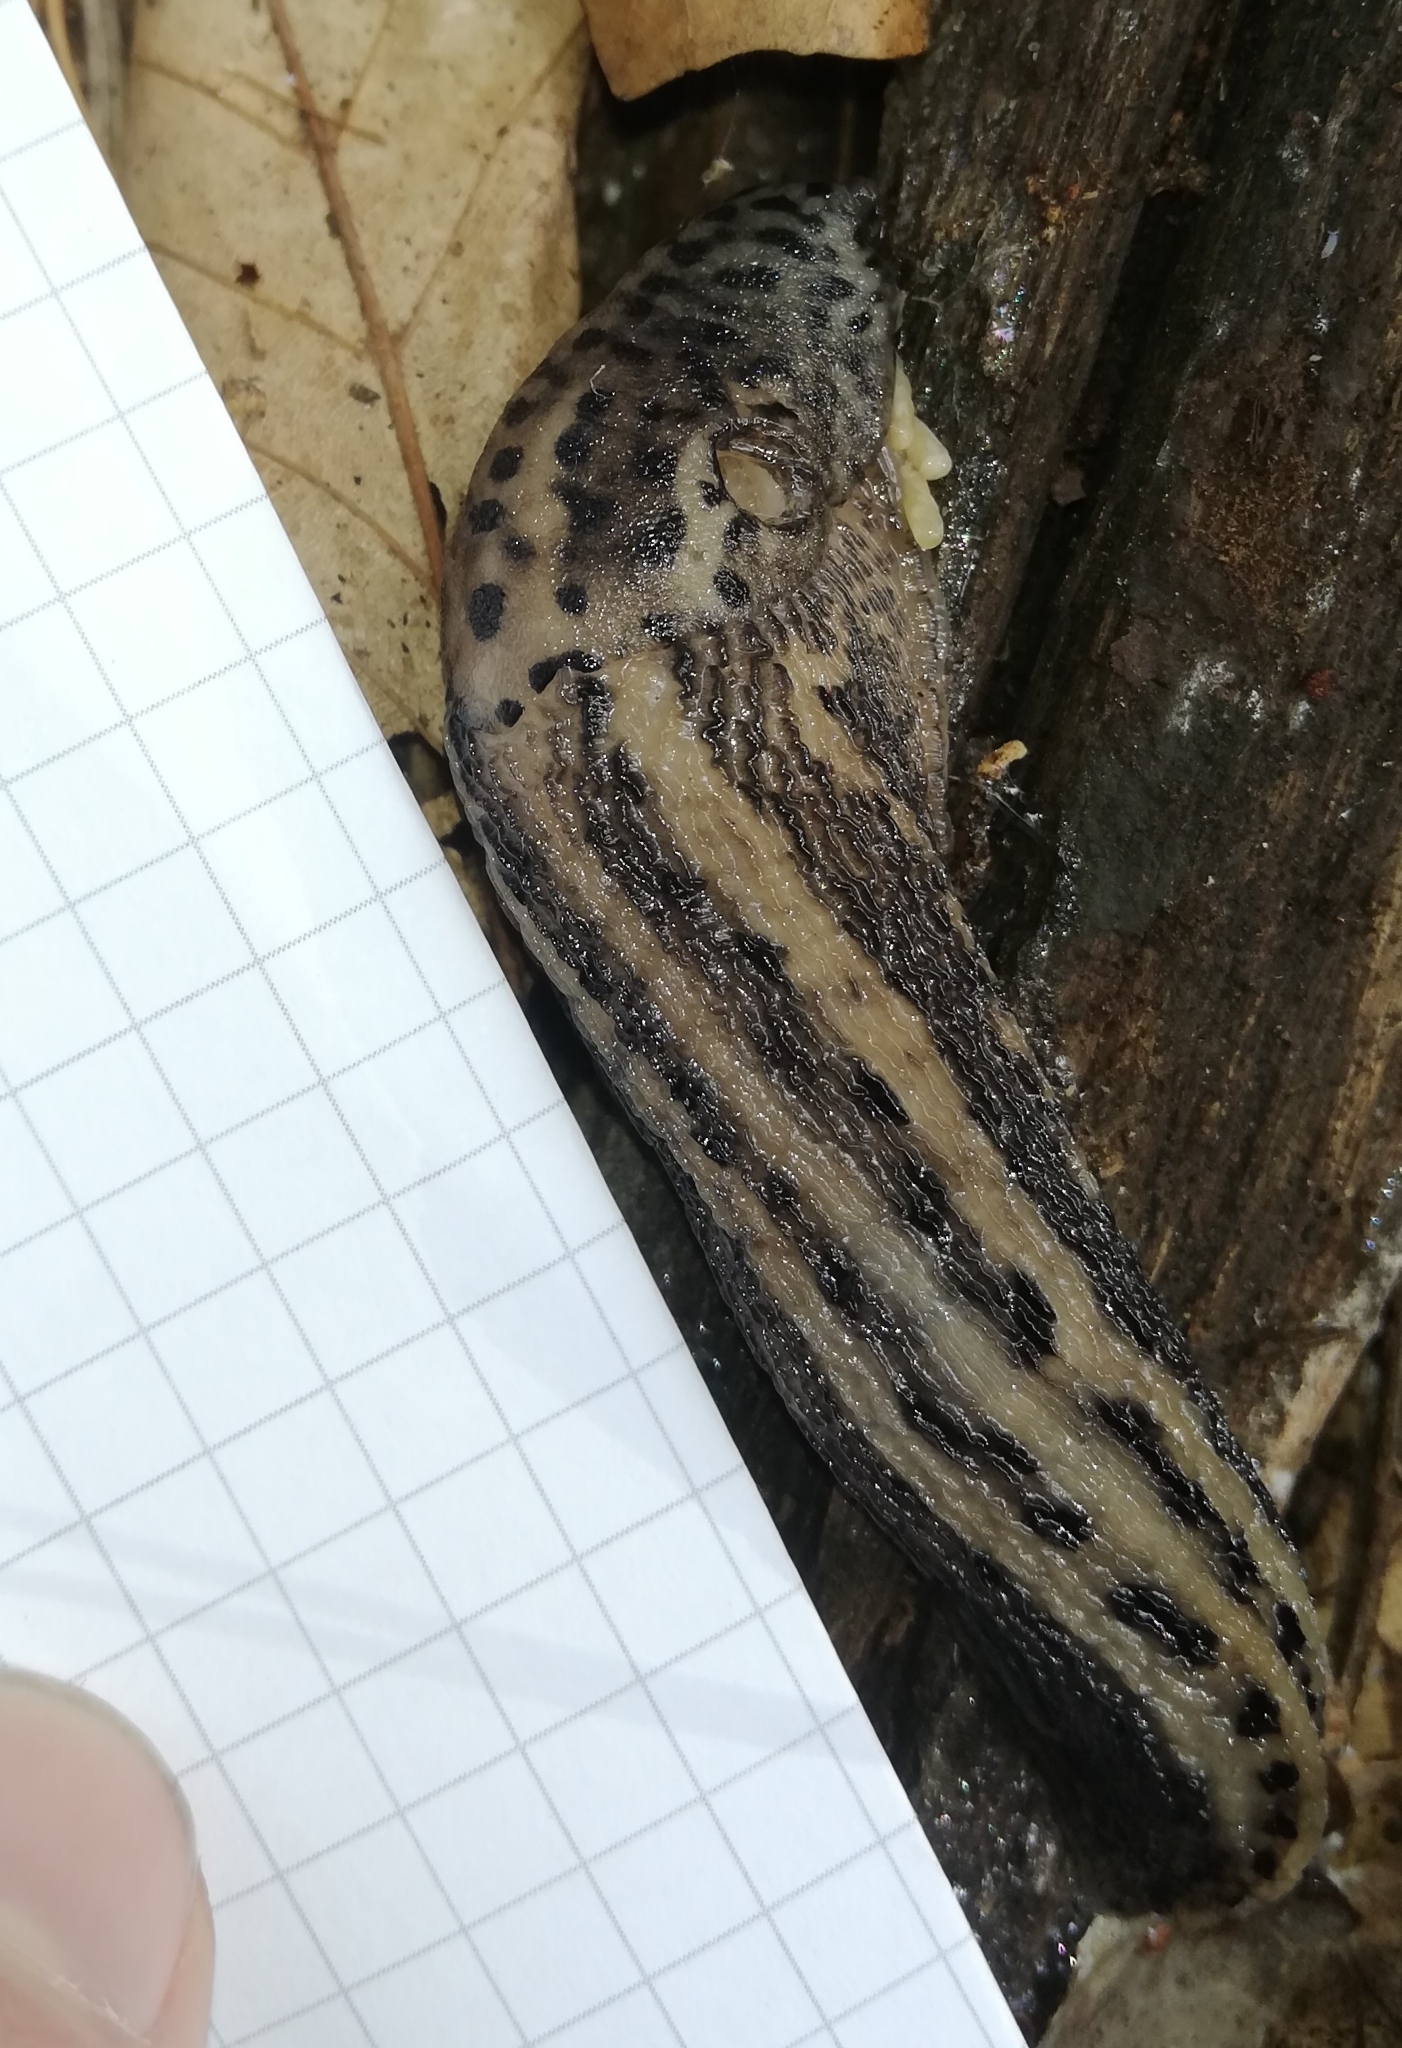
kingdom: Animalia
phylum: Mollusca
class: Gastropoda
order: Stylommatophora
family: Limacidae
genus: Limax
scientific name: Limax maximus
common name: Great grey slug
